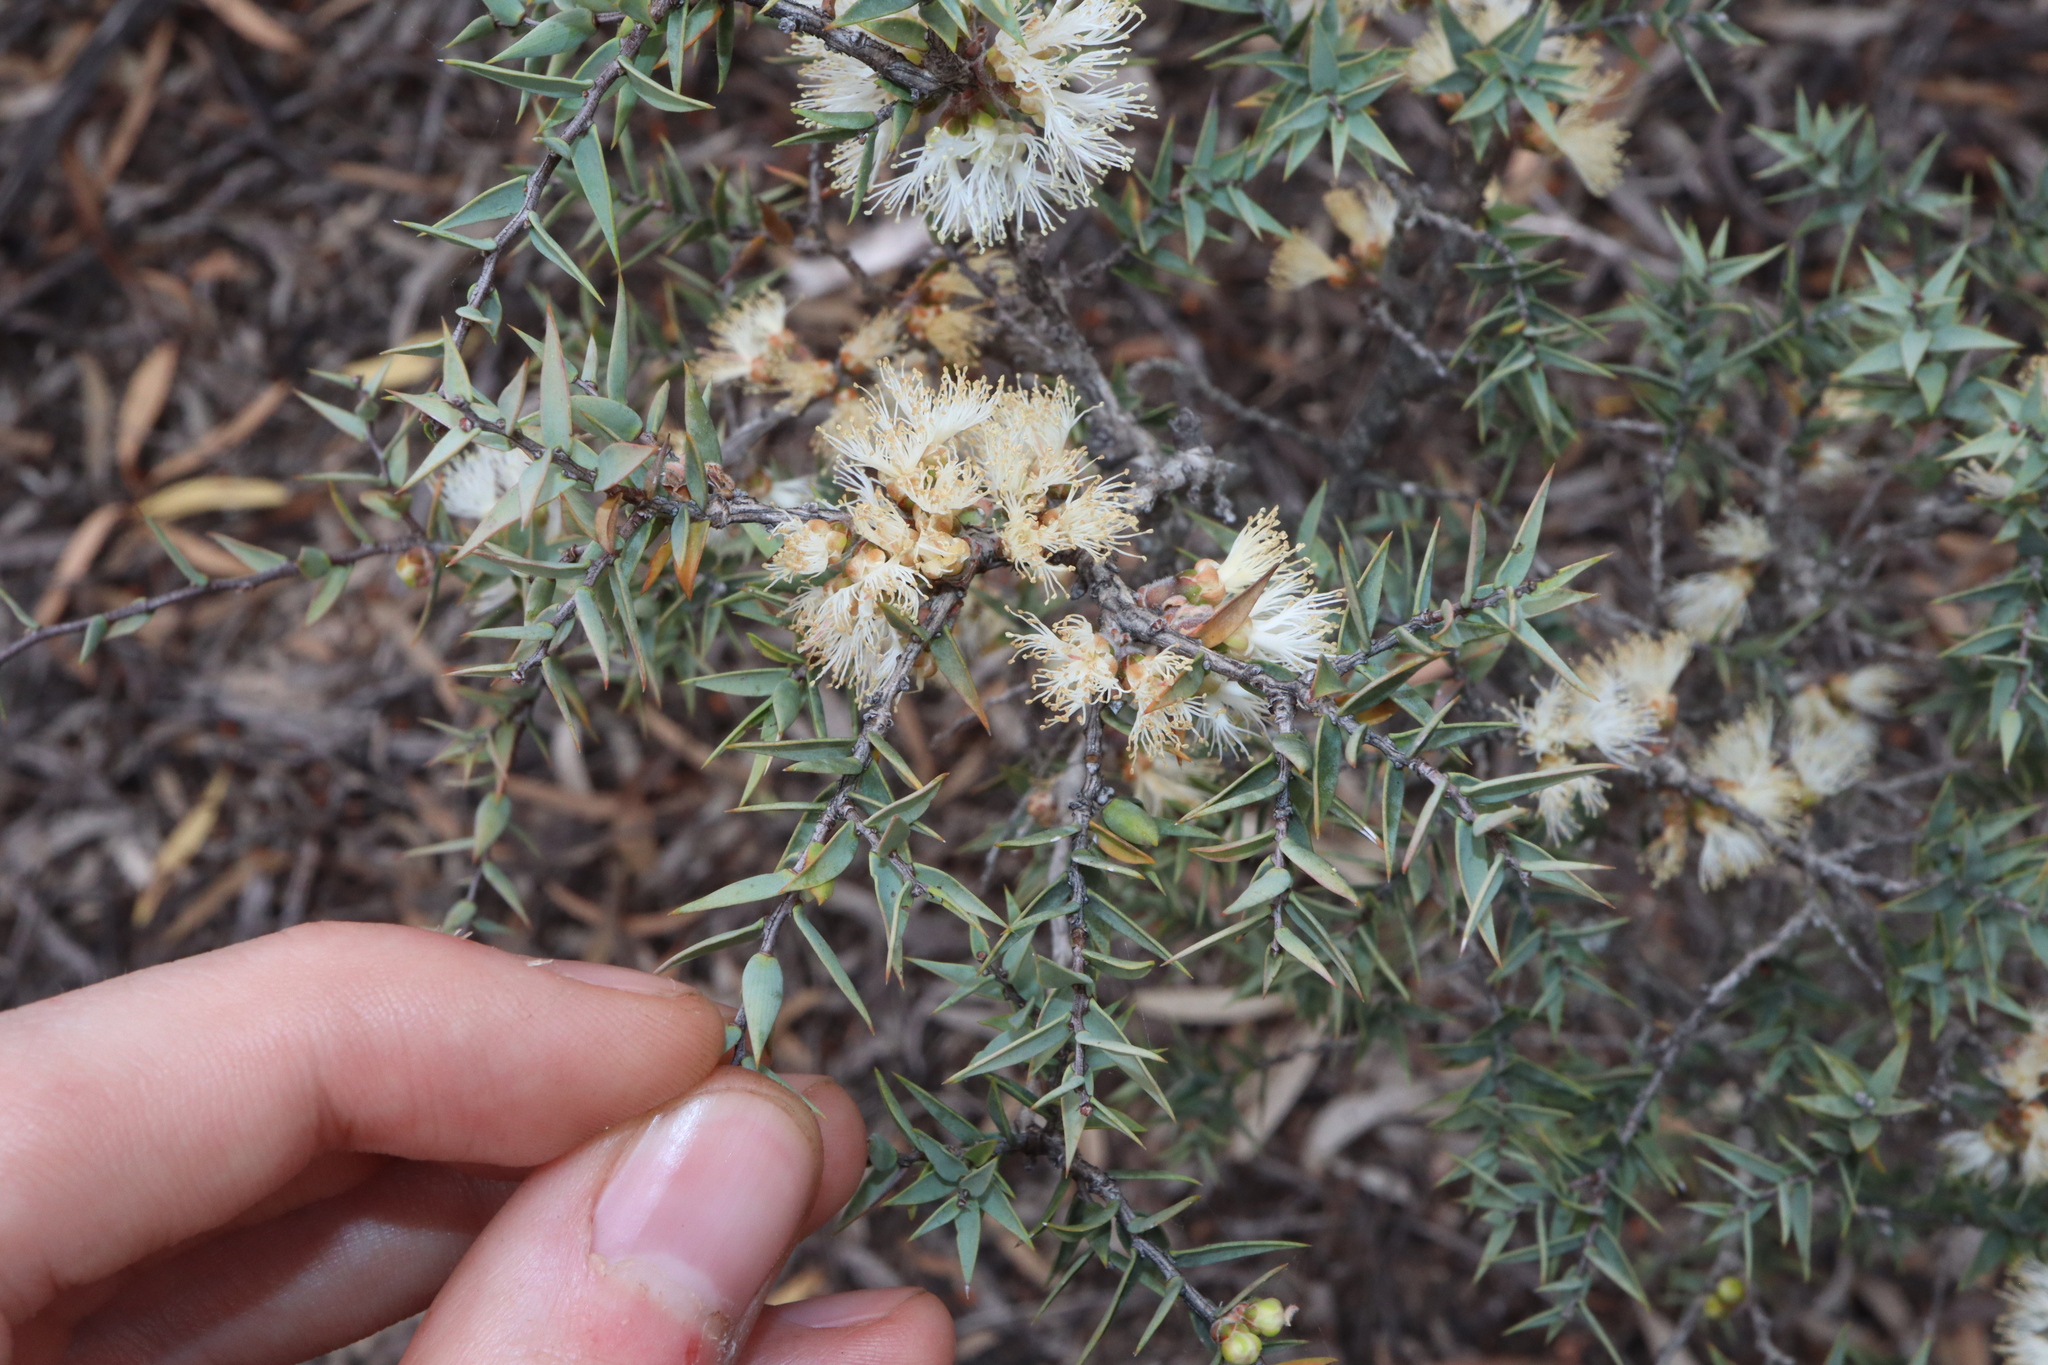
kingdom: Plantae
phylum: Tracheophyta
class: Magnoliopsida
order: Myrtales
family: Myrtaceae
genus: Melaleuca
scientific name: Melaleuca marginata
